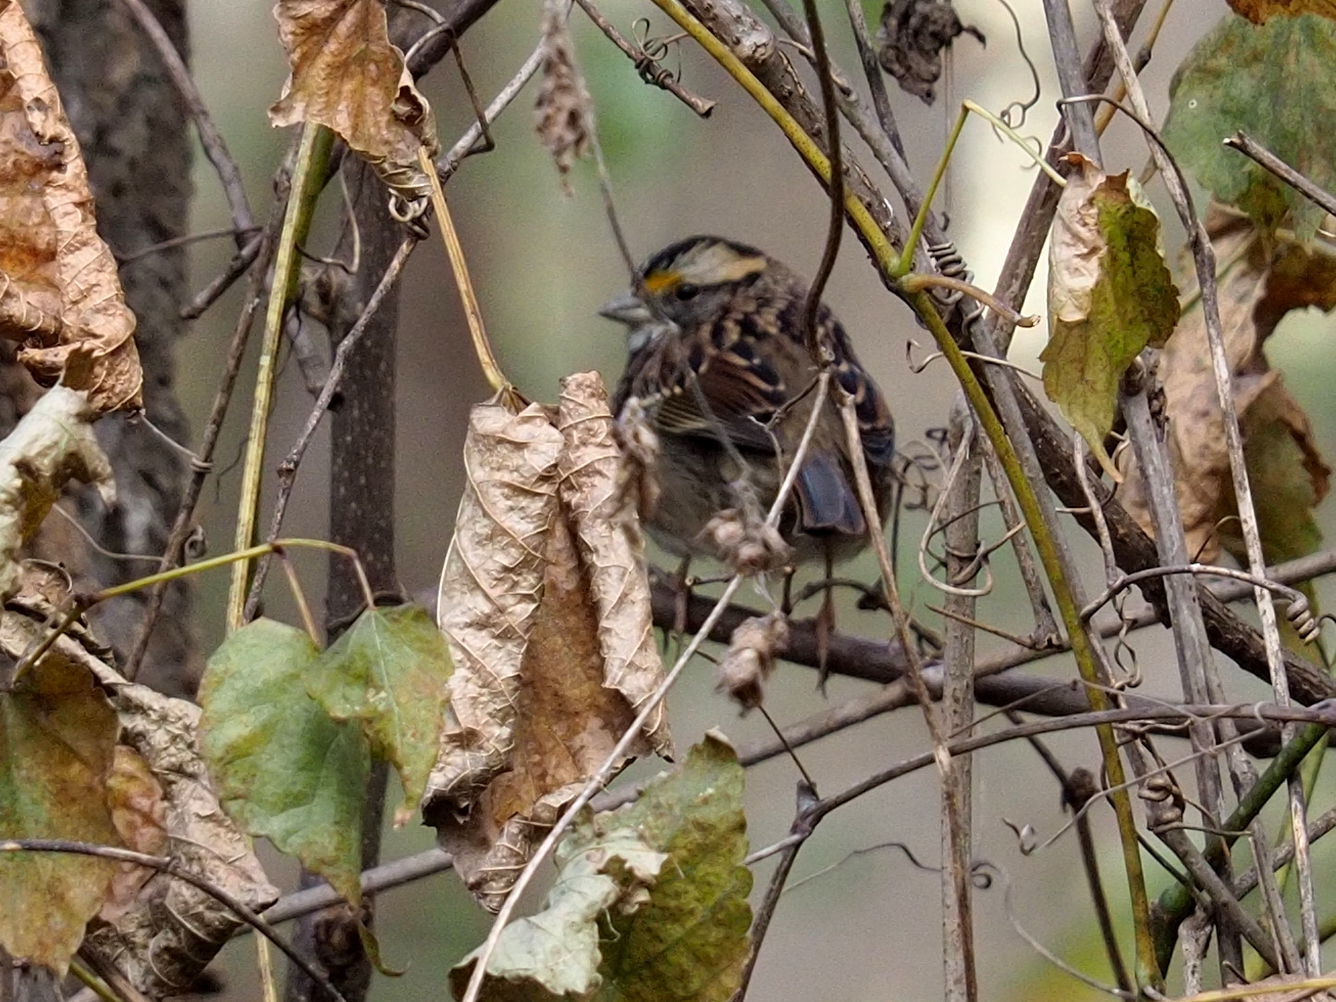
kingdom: Animalia
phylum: Chordata
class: Aves
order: Passeriformes
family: Passerellidae
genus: Zonotrichia
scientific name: Zonotrichia albicollis
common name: White-throated sparrow
